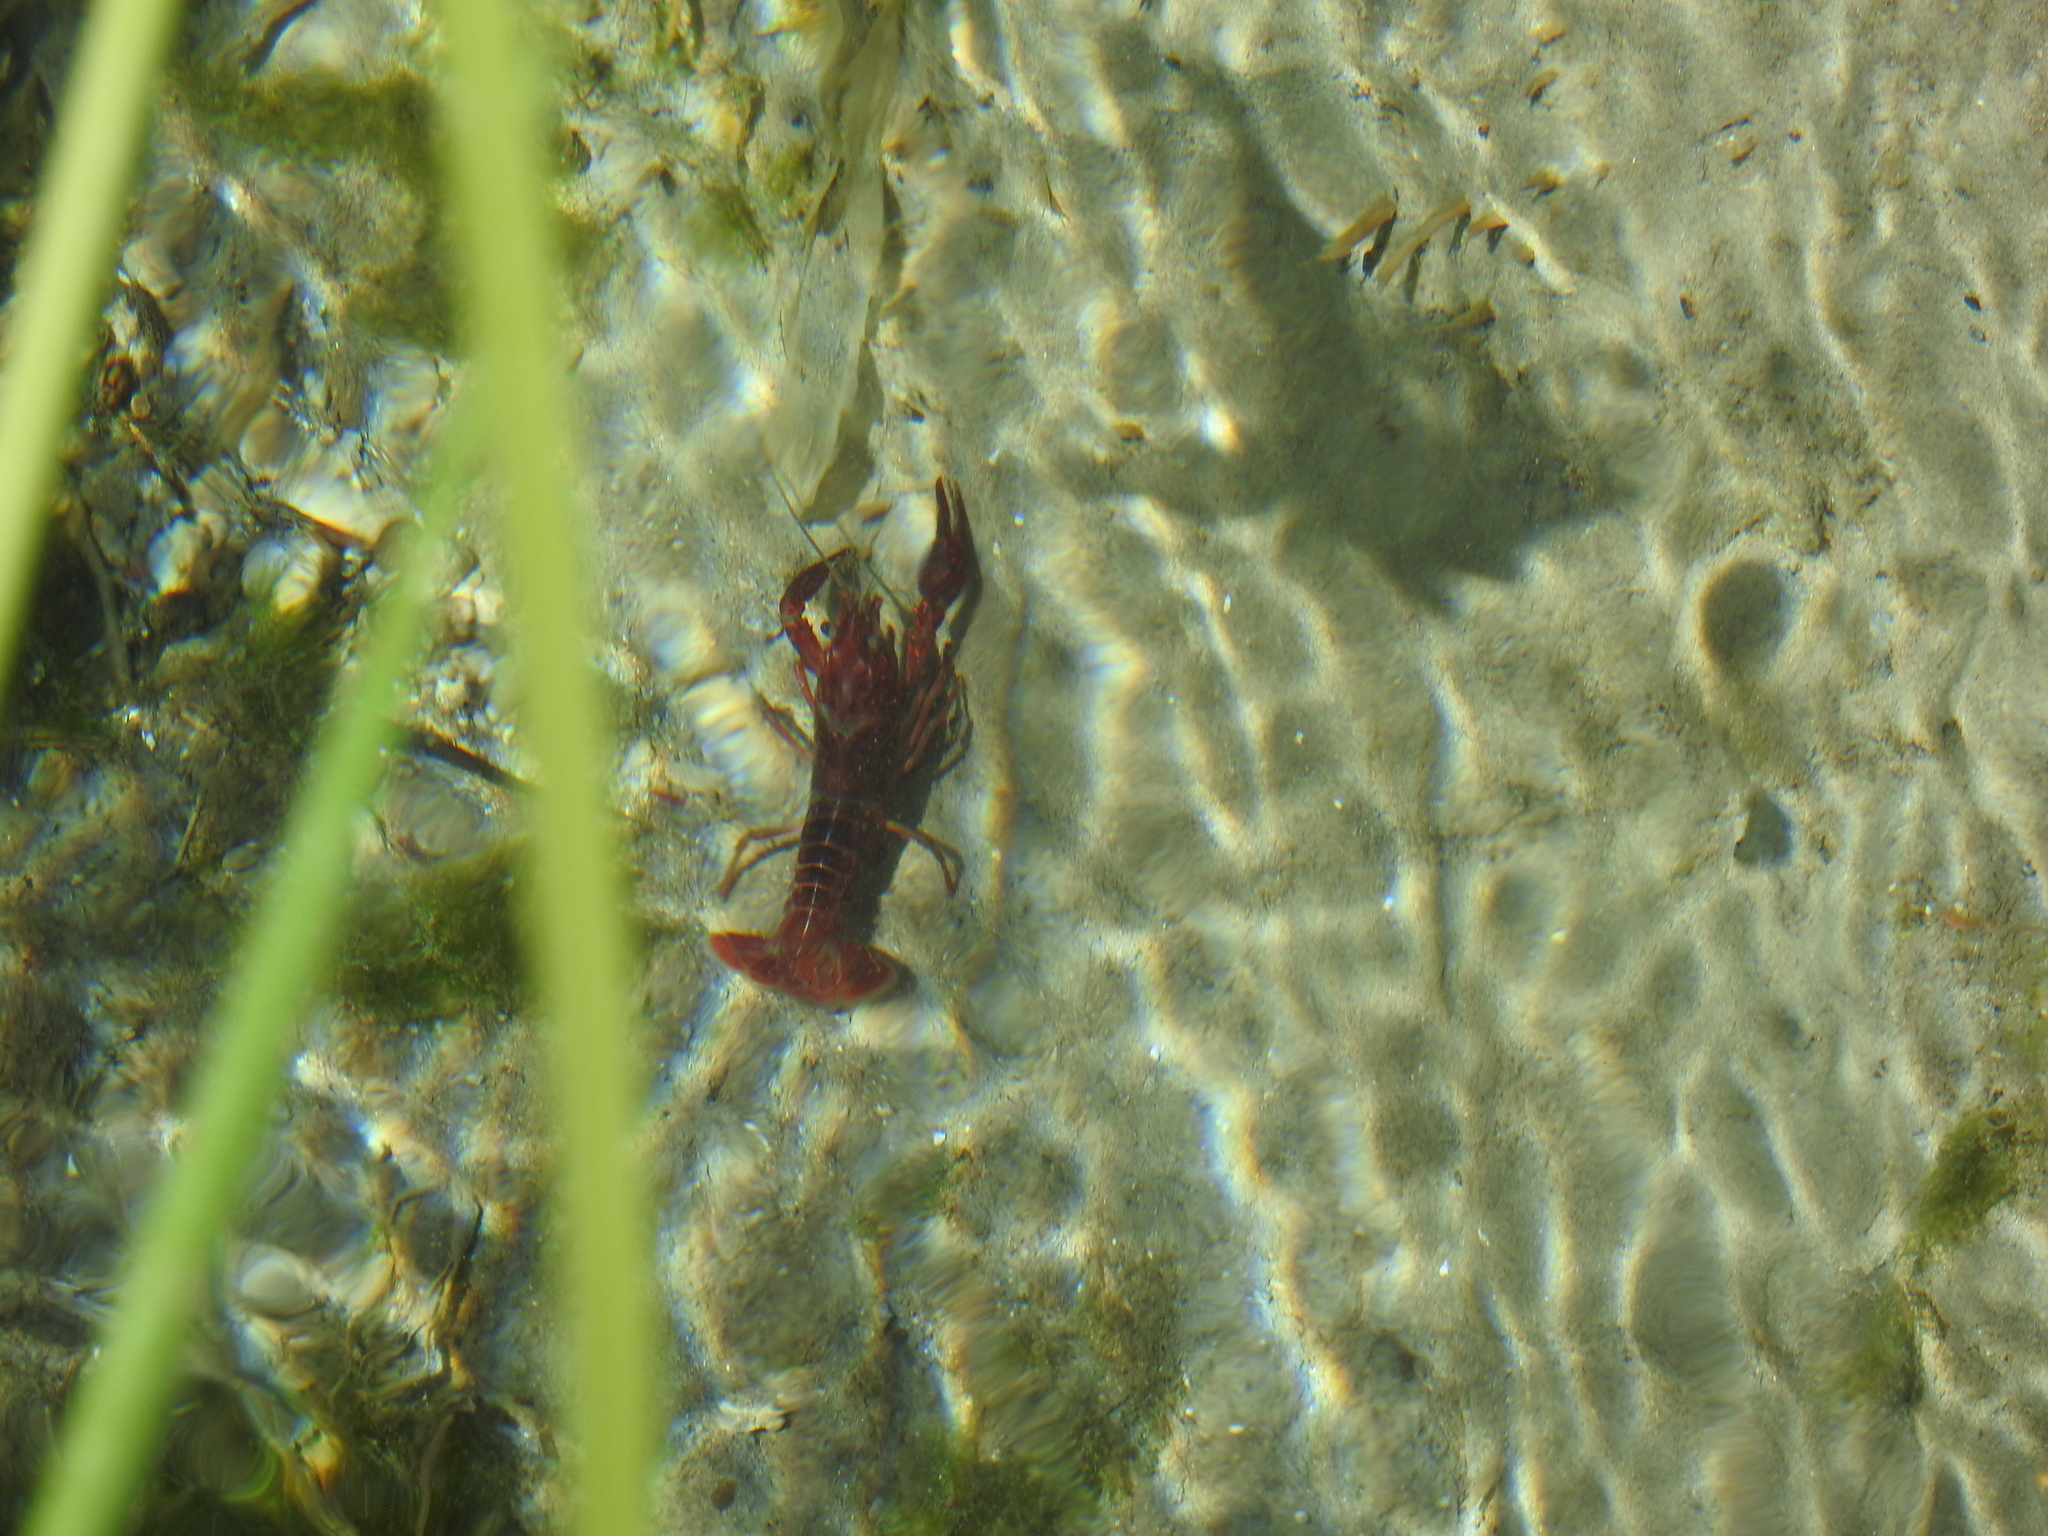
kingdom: Animalia
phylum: Arthropoda
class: Malacostraca
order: Decapoda
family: Cambaridae
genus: Procambarus
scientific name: Procambarus clarkii
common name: Red swamp crayfish
